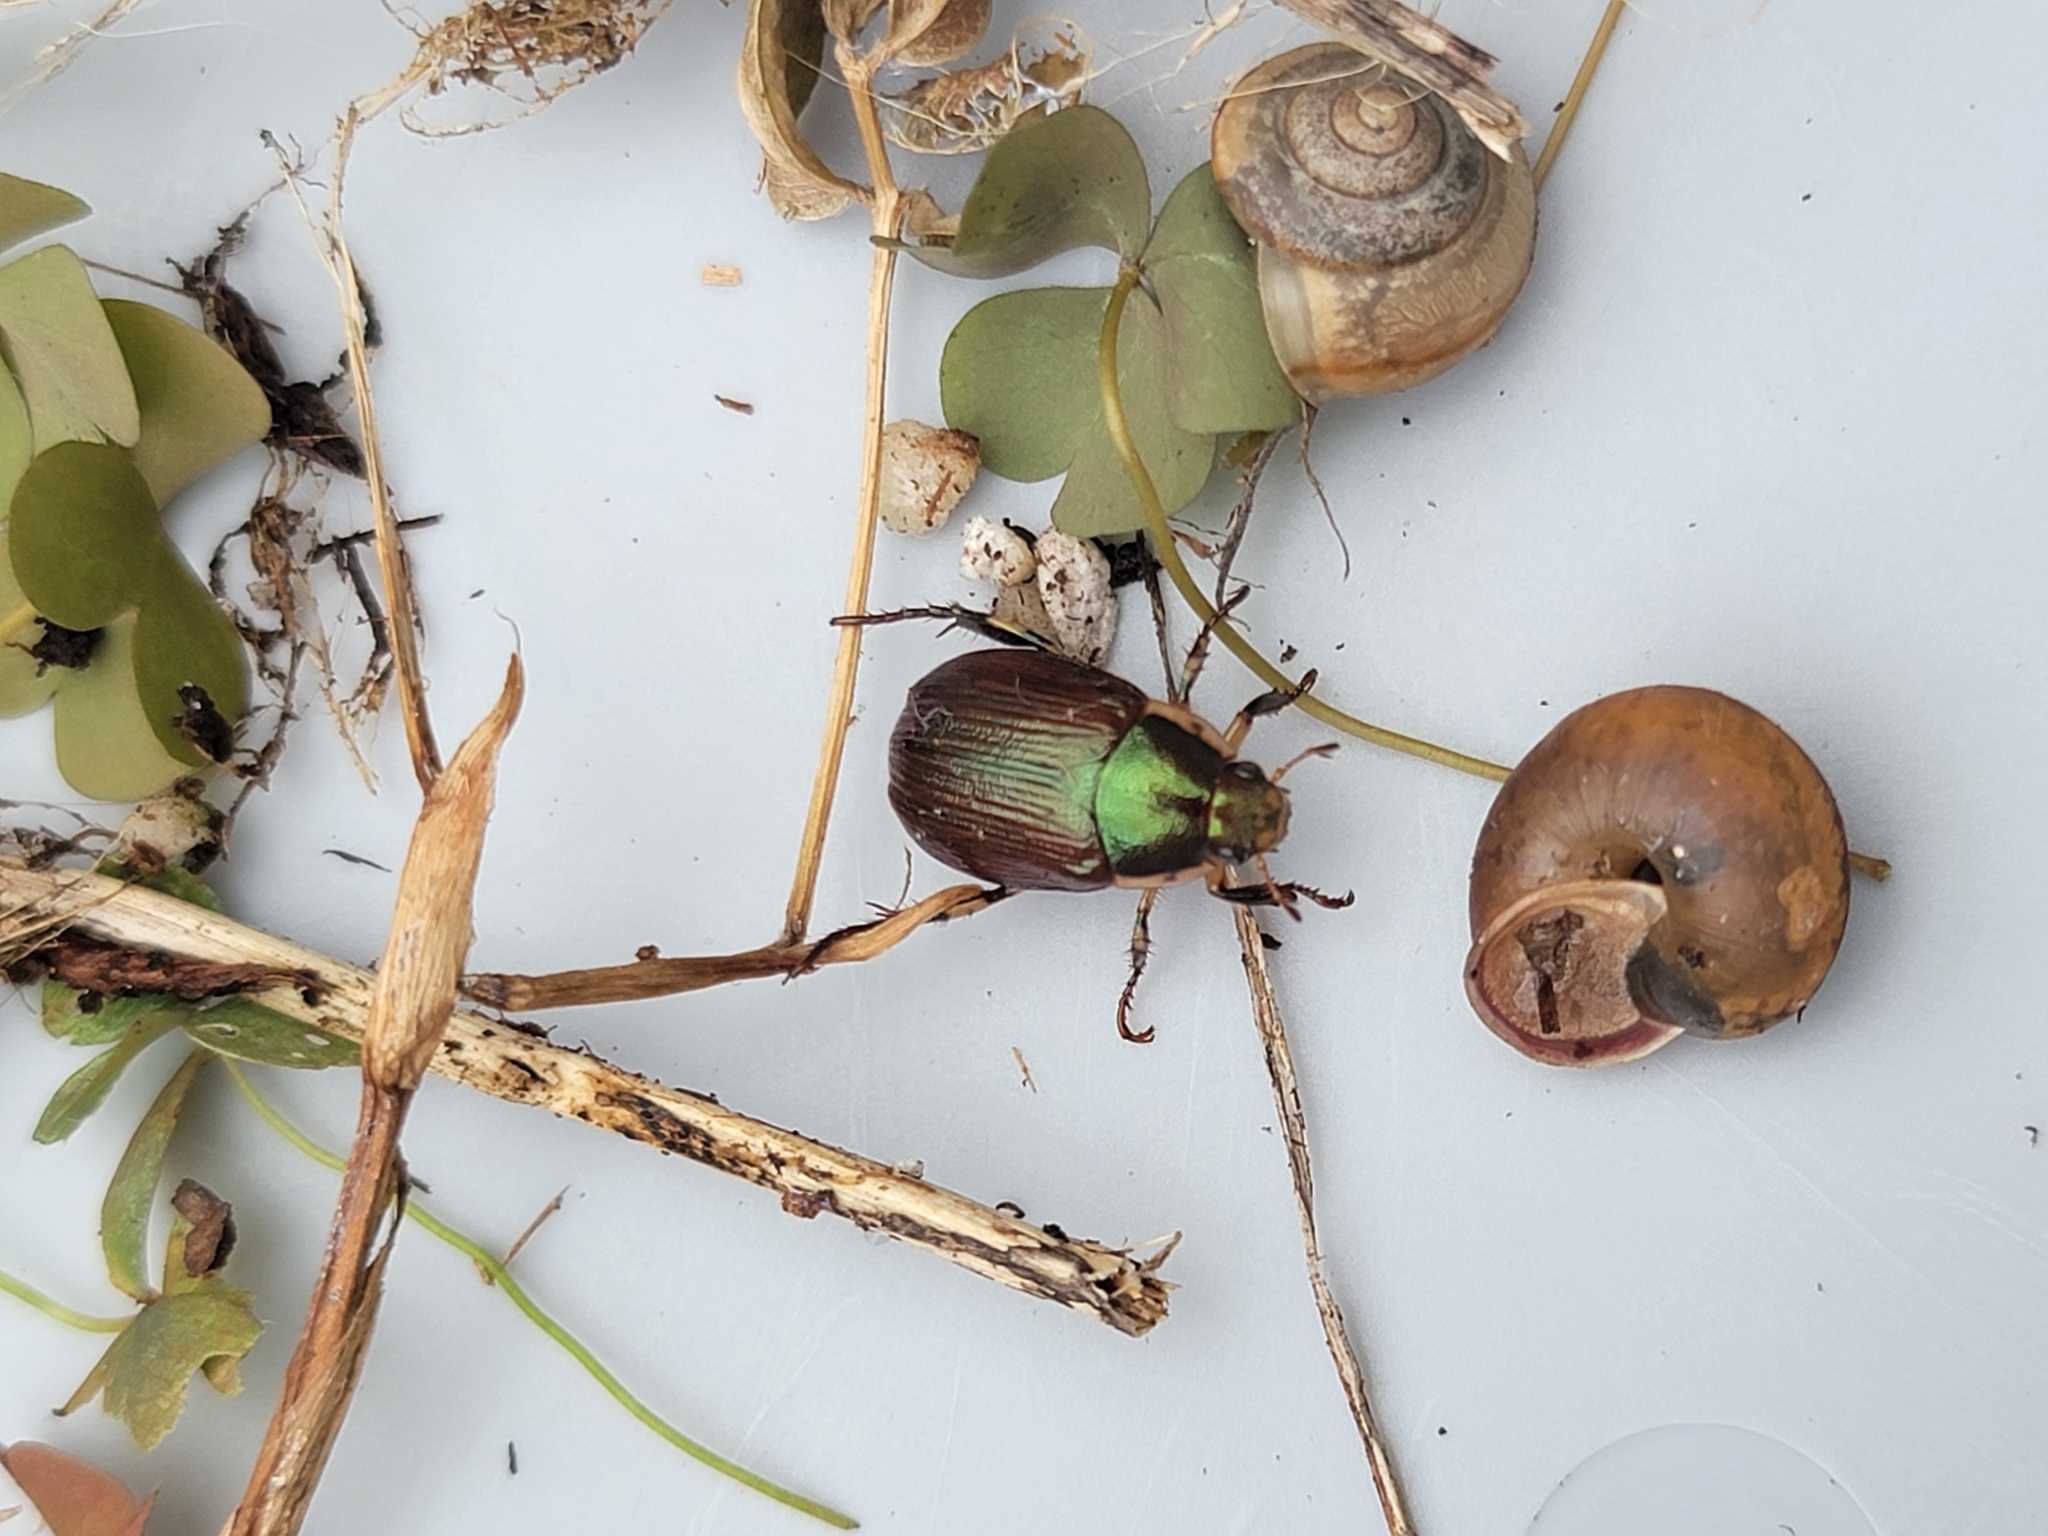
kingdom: Animalia
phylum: Arthropoda
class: Insecta
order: Coleoptera
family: Scarabaeidae
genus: Callistethus
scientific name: Callistethus marginatus
